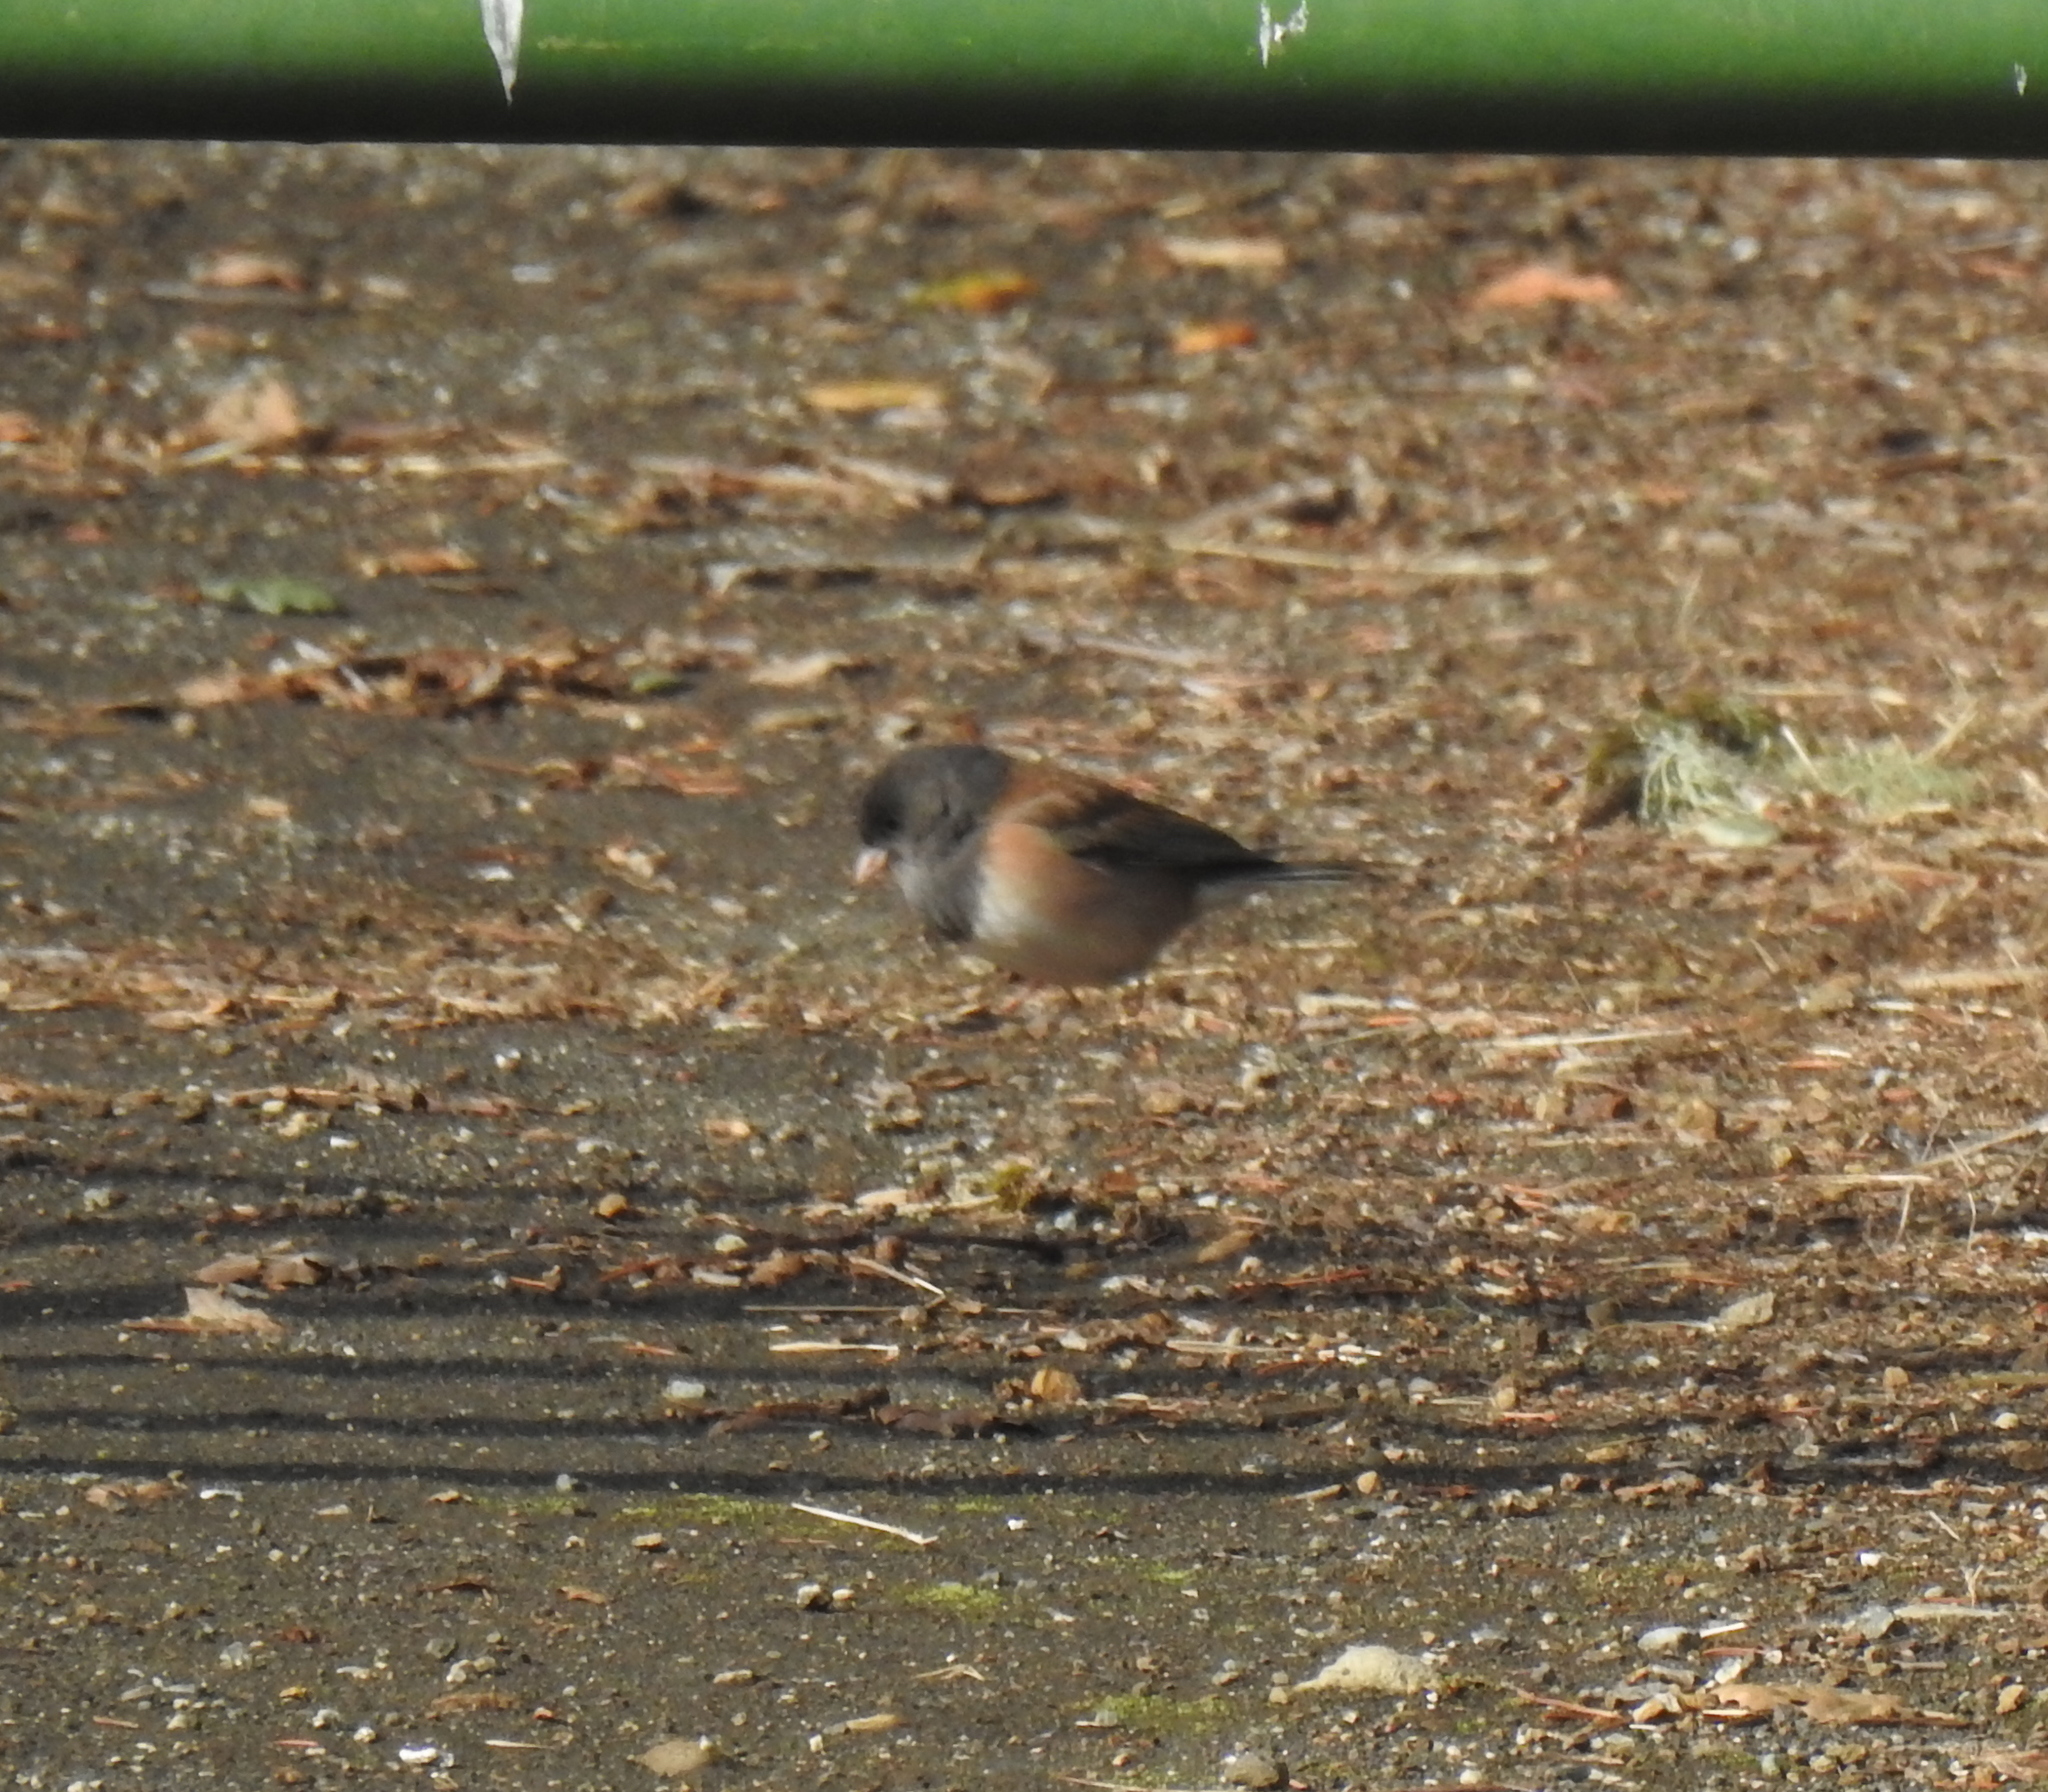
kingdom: Animalia
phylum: Chordata
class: Aves
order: Passeriformes
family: Passerellidae
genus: Junco
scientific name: Junco hyemalis
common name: Dark-eyed junco
